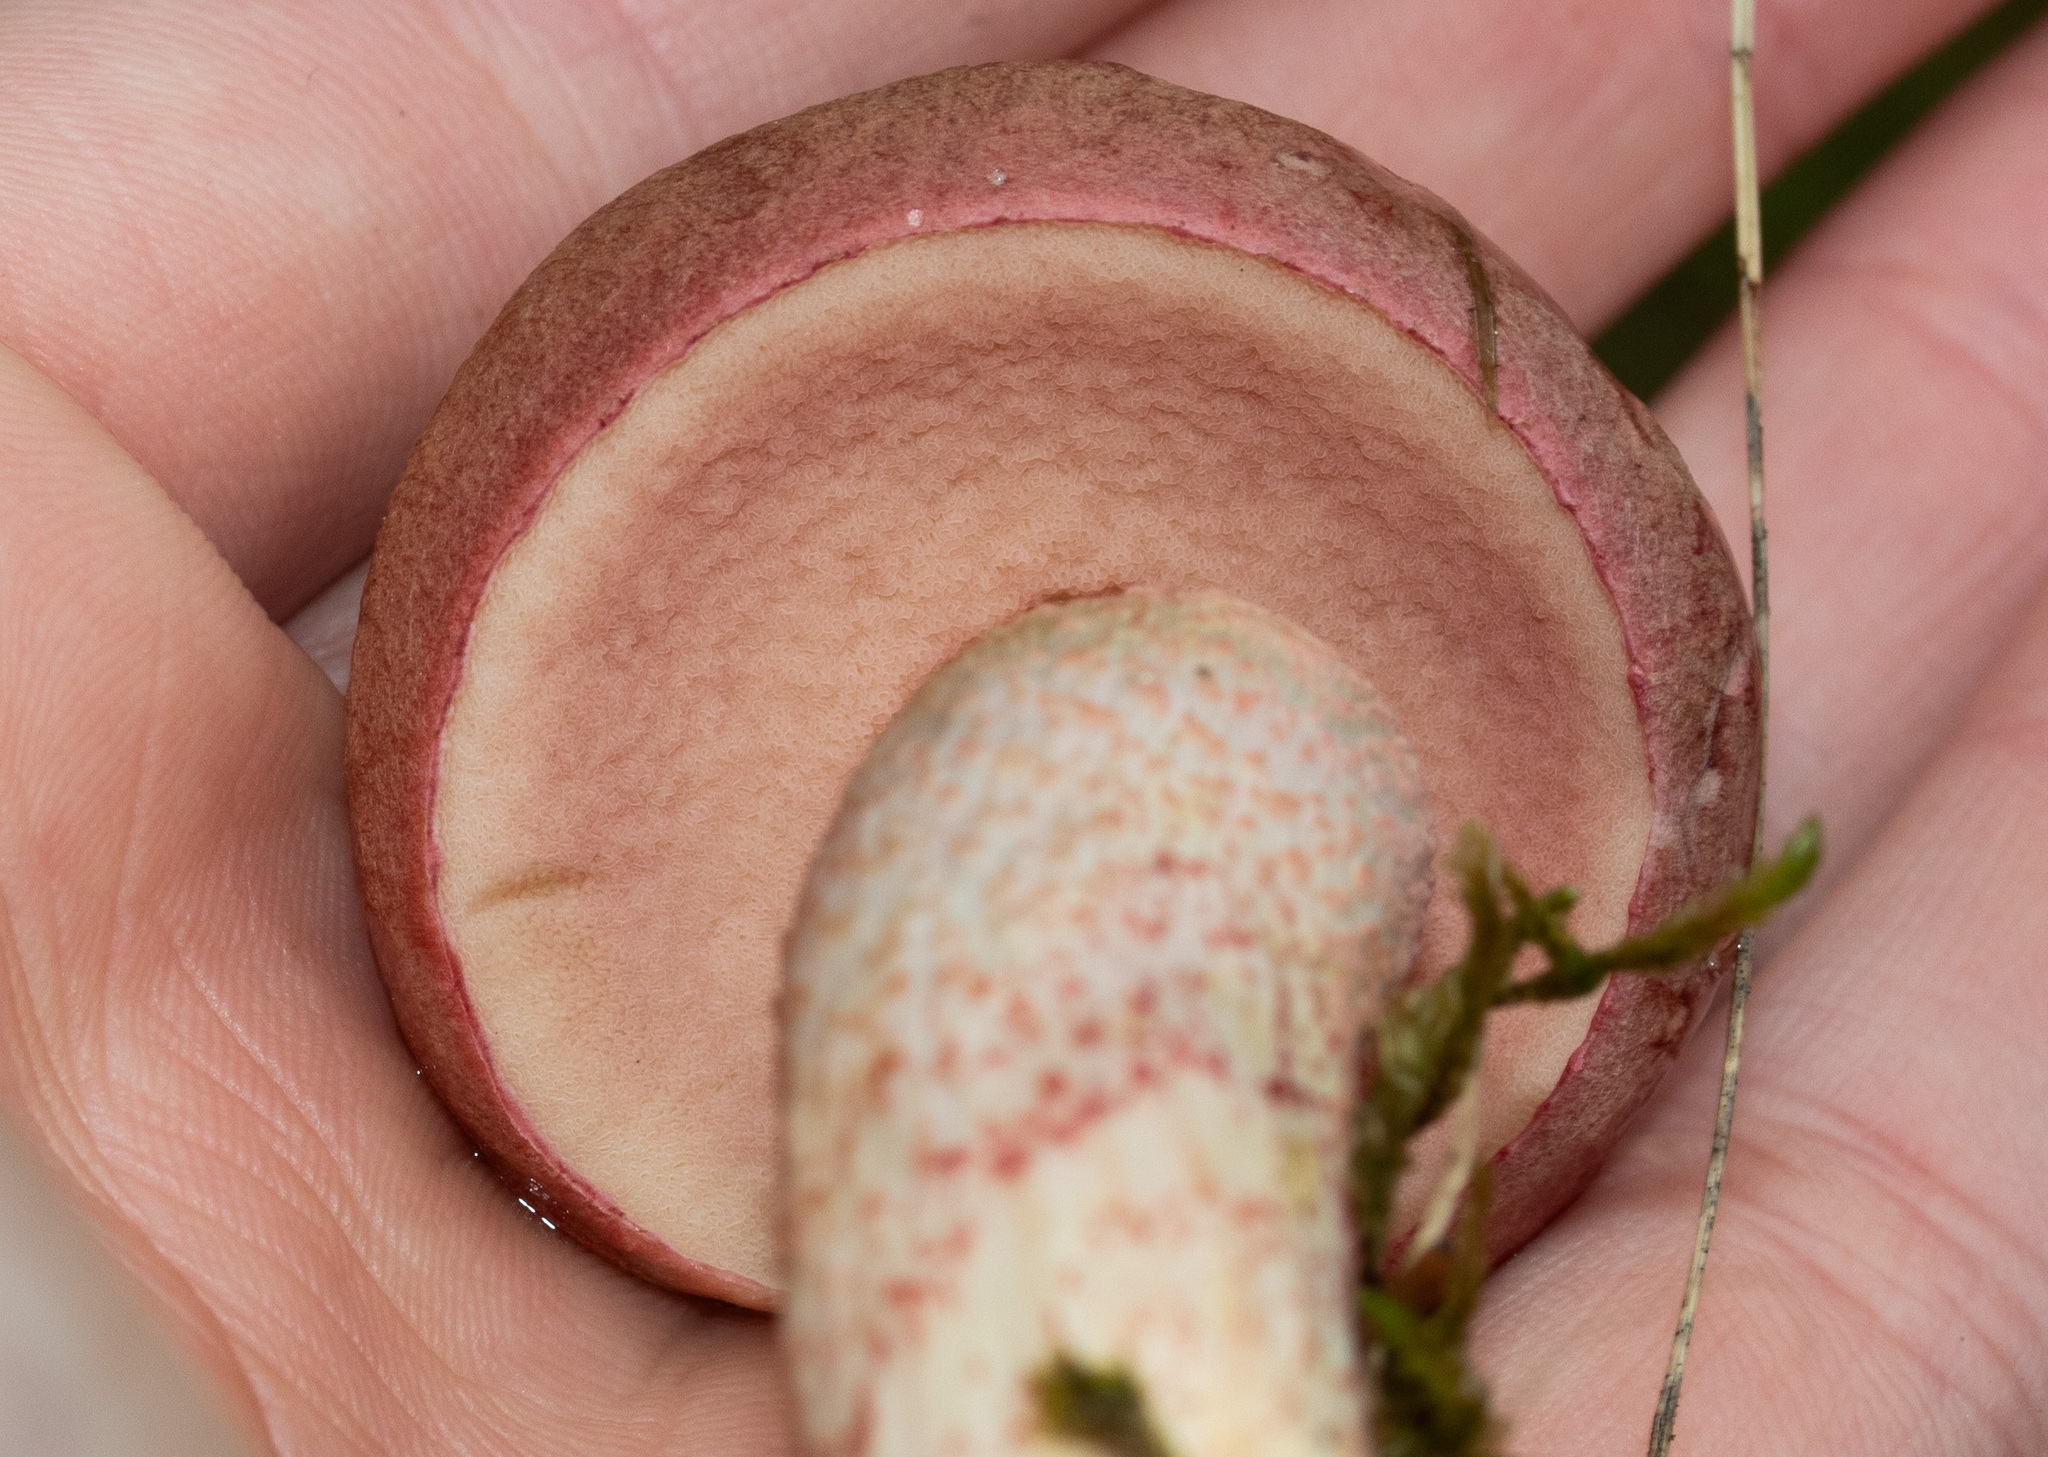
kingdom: Fungi
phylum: Basidiomycota
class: Agaricomycetes
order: Boletales
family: Boletaceae
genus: Harrya
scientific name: Harrya chromipes
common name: Chrome-footed bolete
